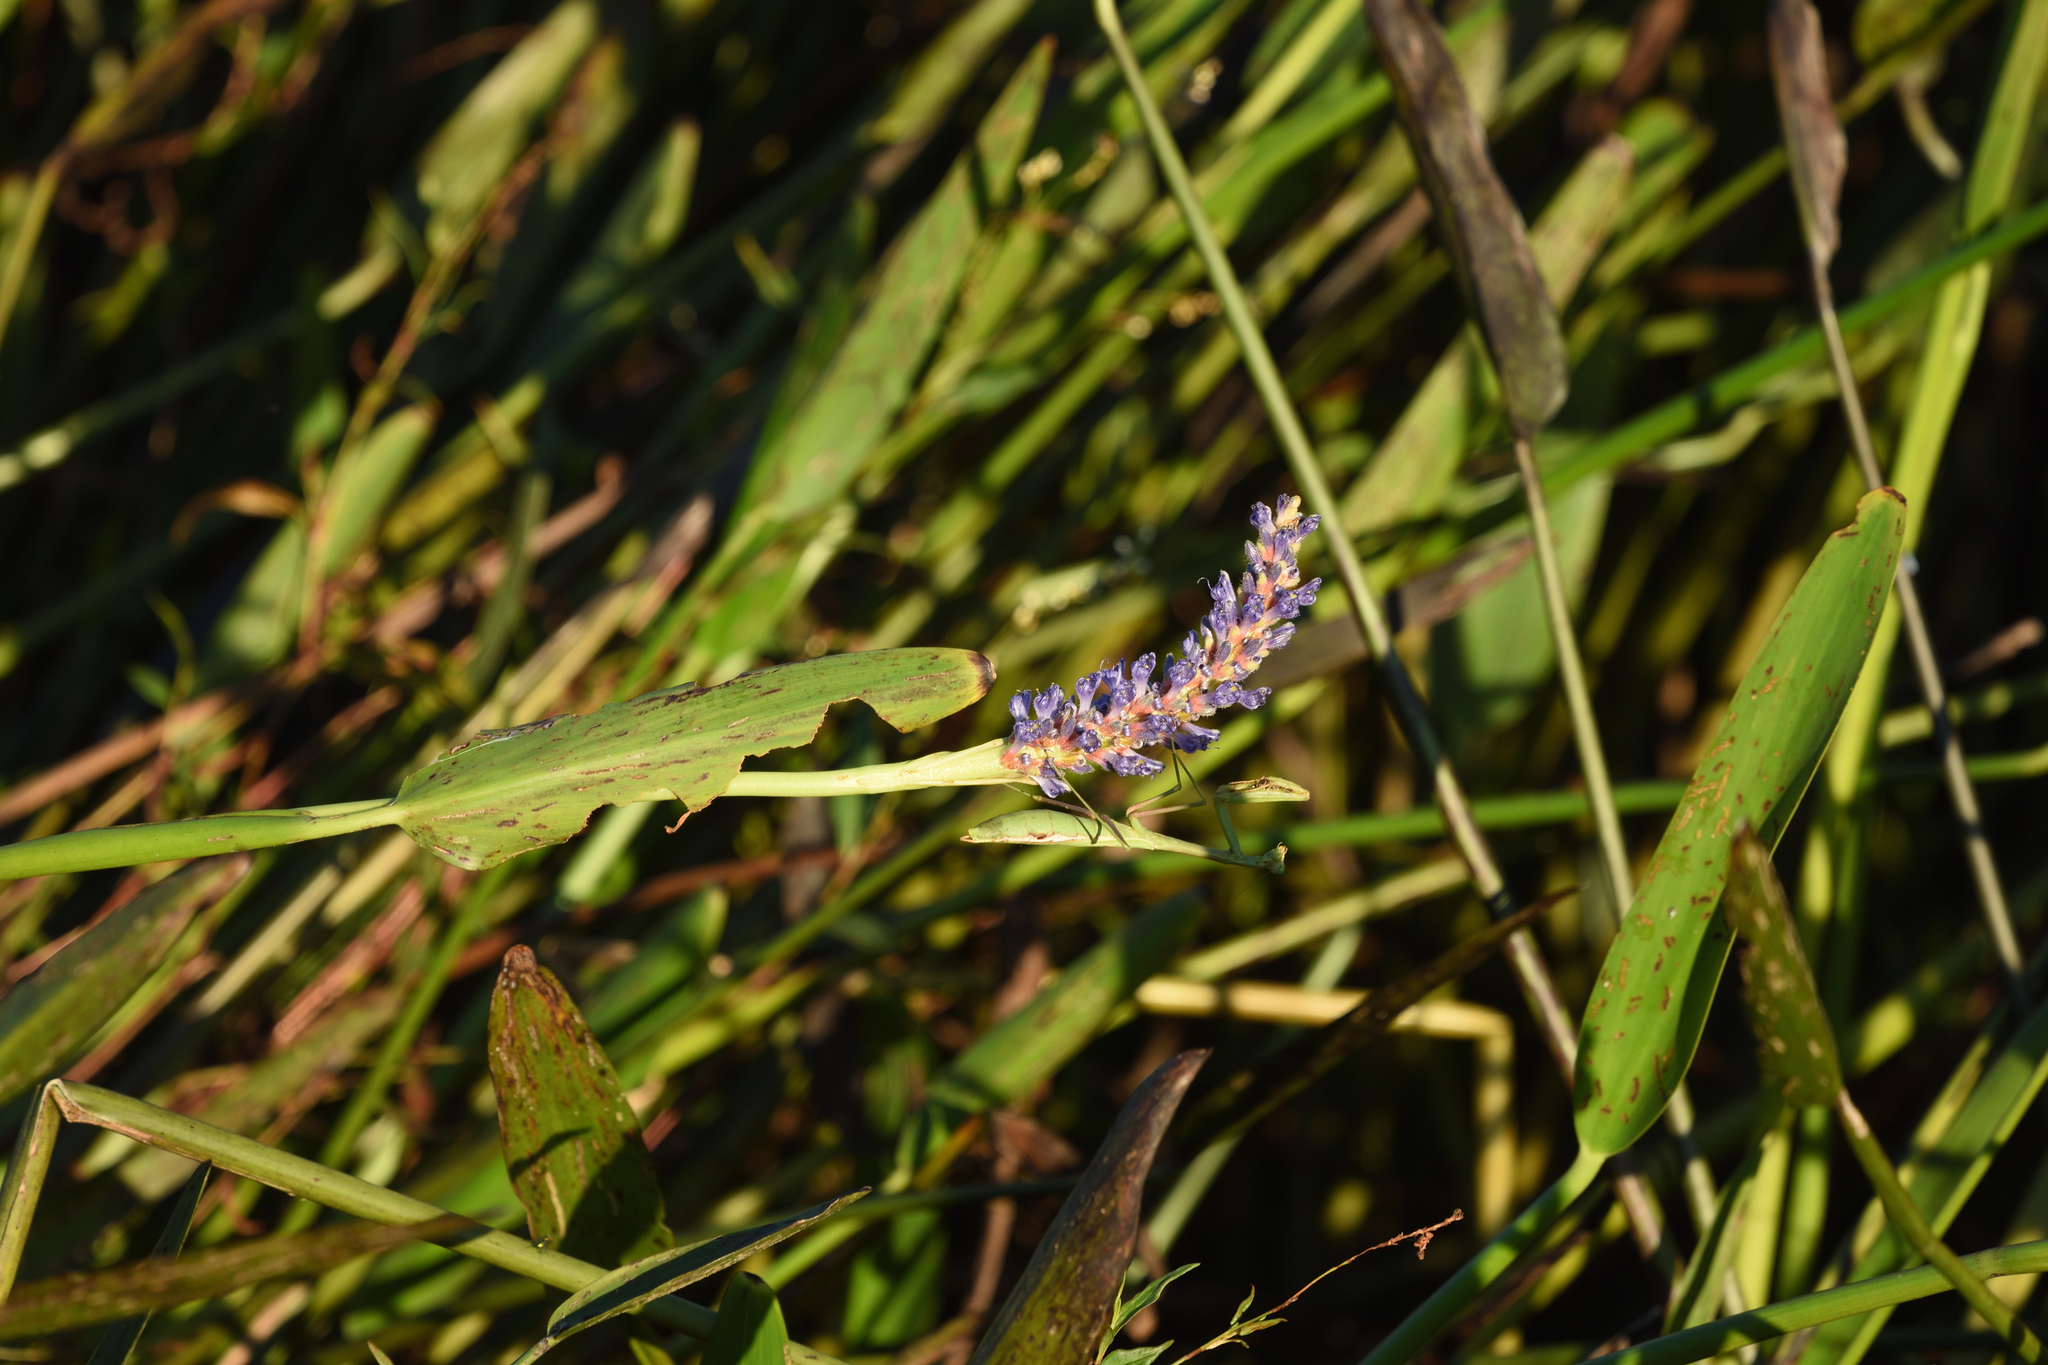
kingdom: Plantae
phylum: Tracheophyta
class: Liliopsida
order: Commelinales
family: Pontederiaceae
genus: Pontederia
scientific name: Pontederia cordata
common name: Pickerelweed
